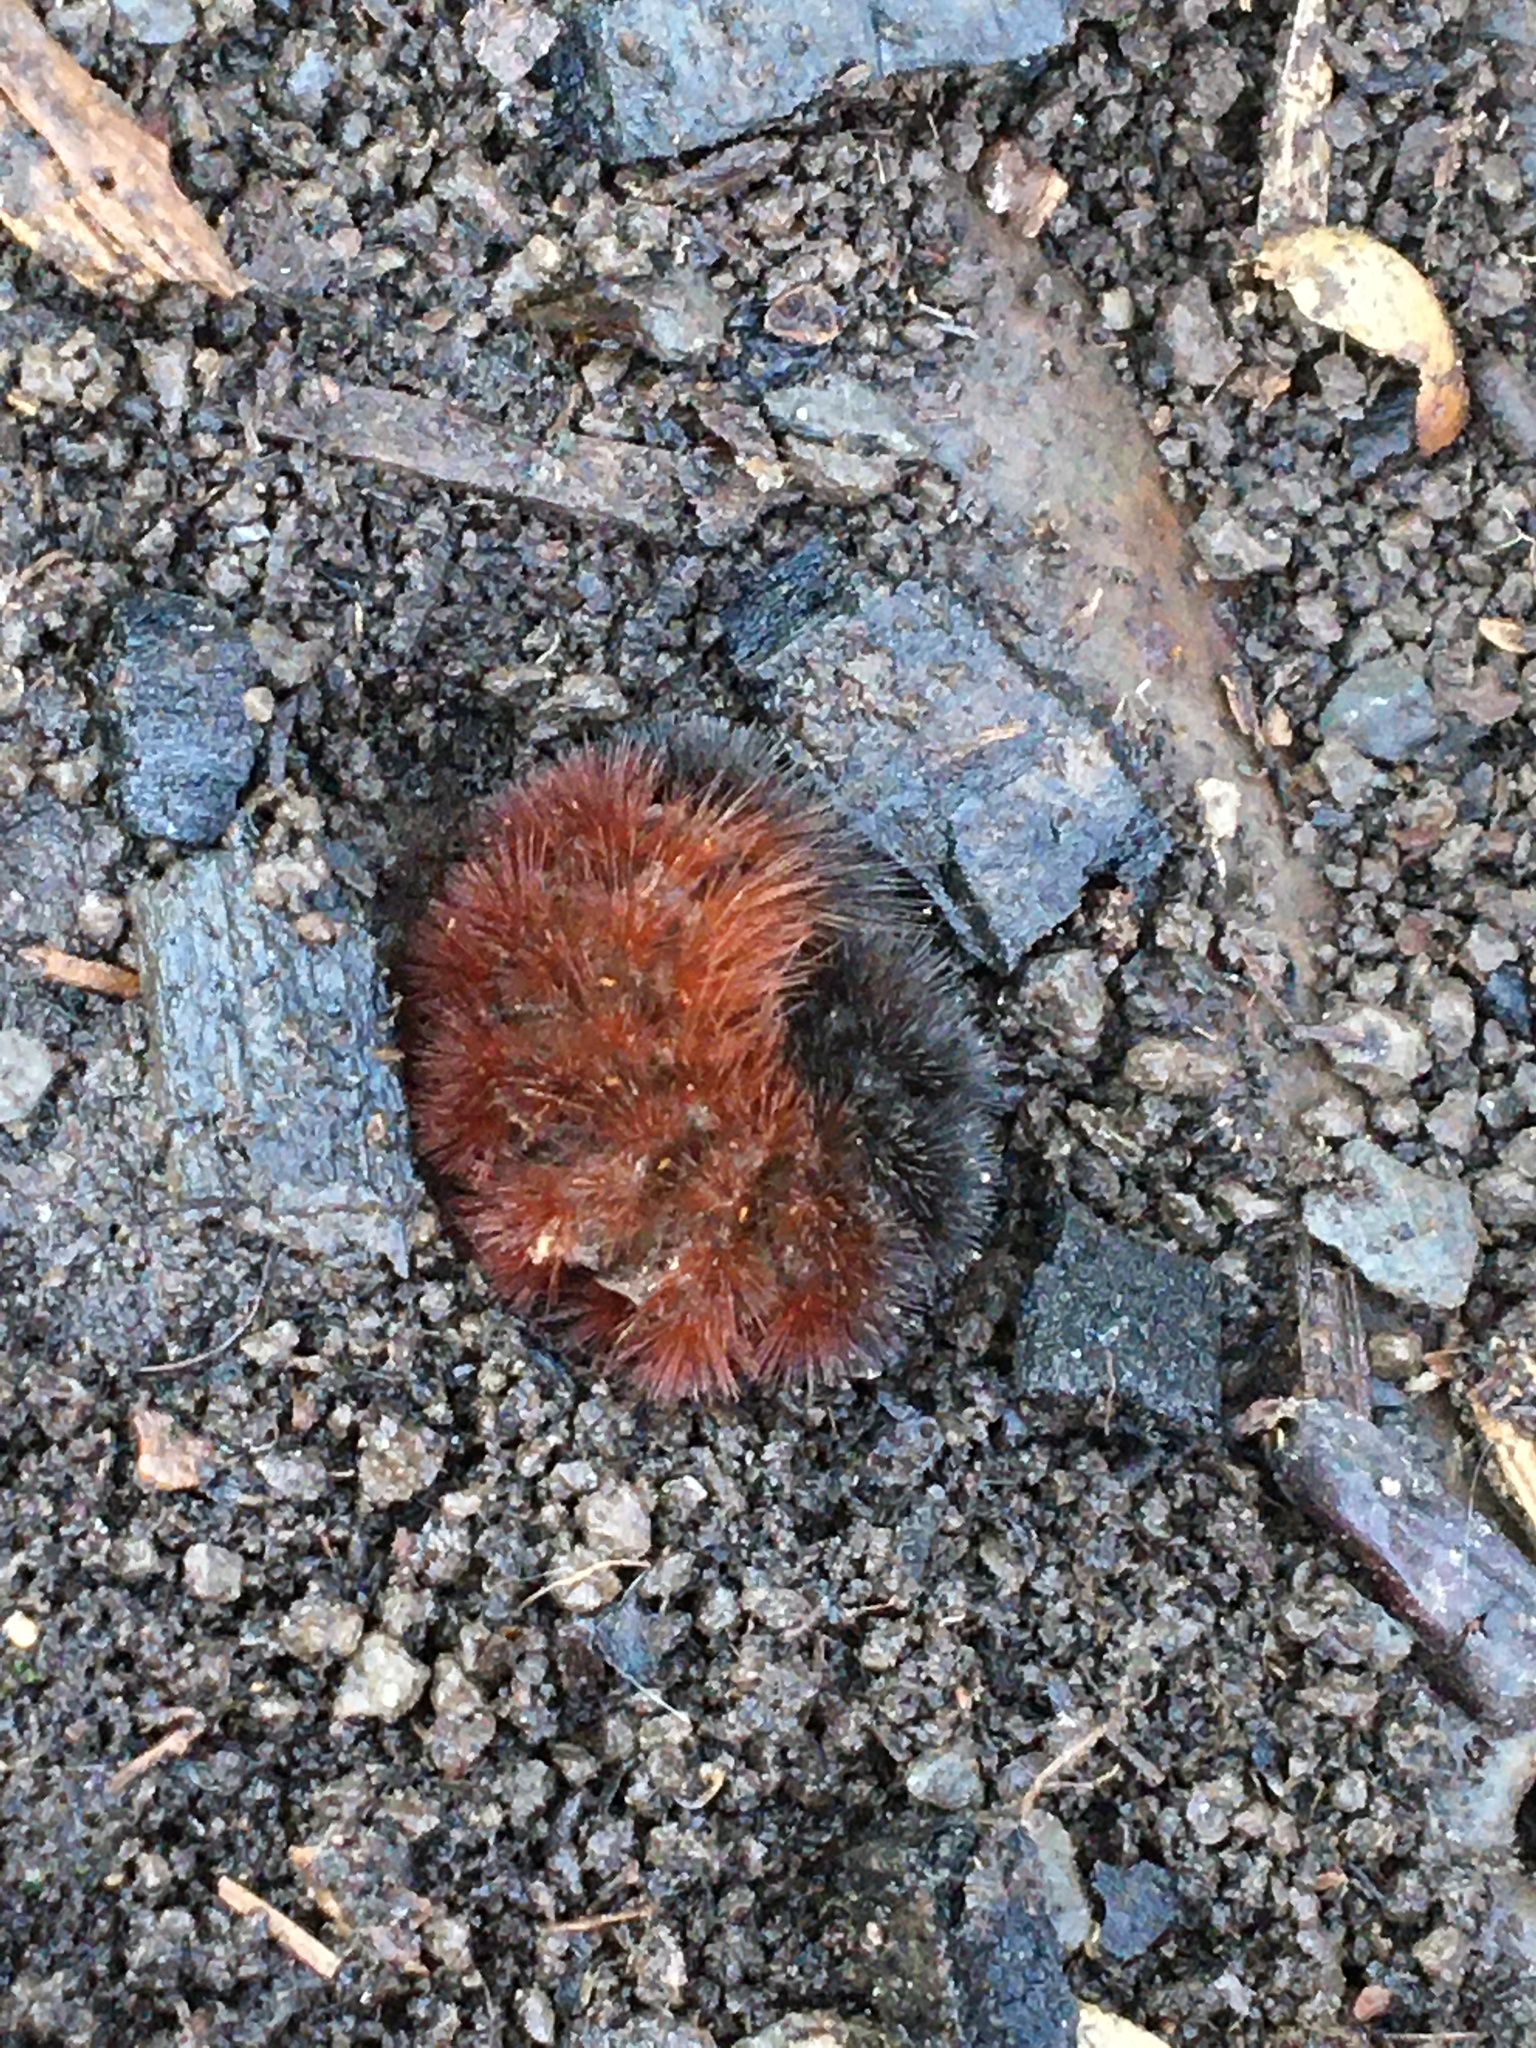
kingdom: Animalia
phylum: Arthropoda
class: Insecta
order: Lepidoptera
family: Erebidae
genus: Pyrrharctia
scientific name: Pyrrharctia isabella
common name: Isabella tiger moth
